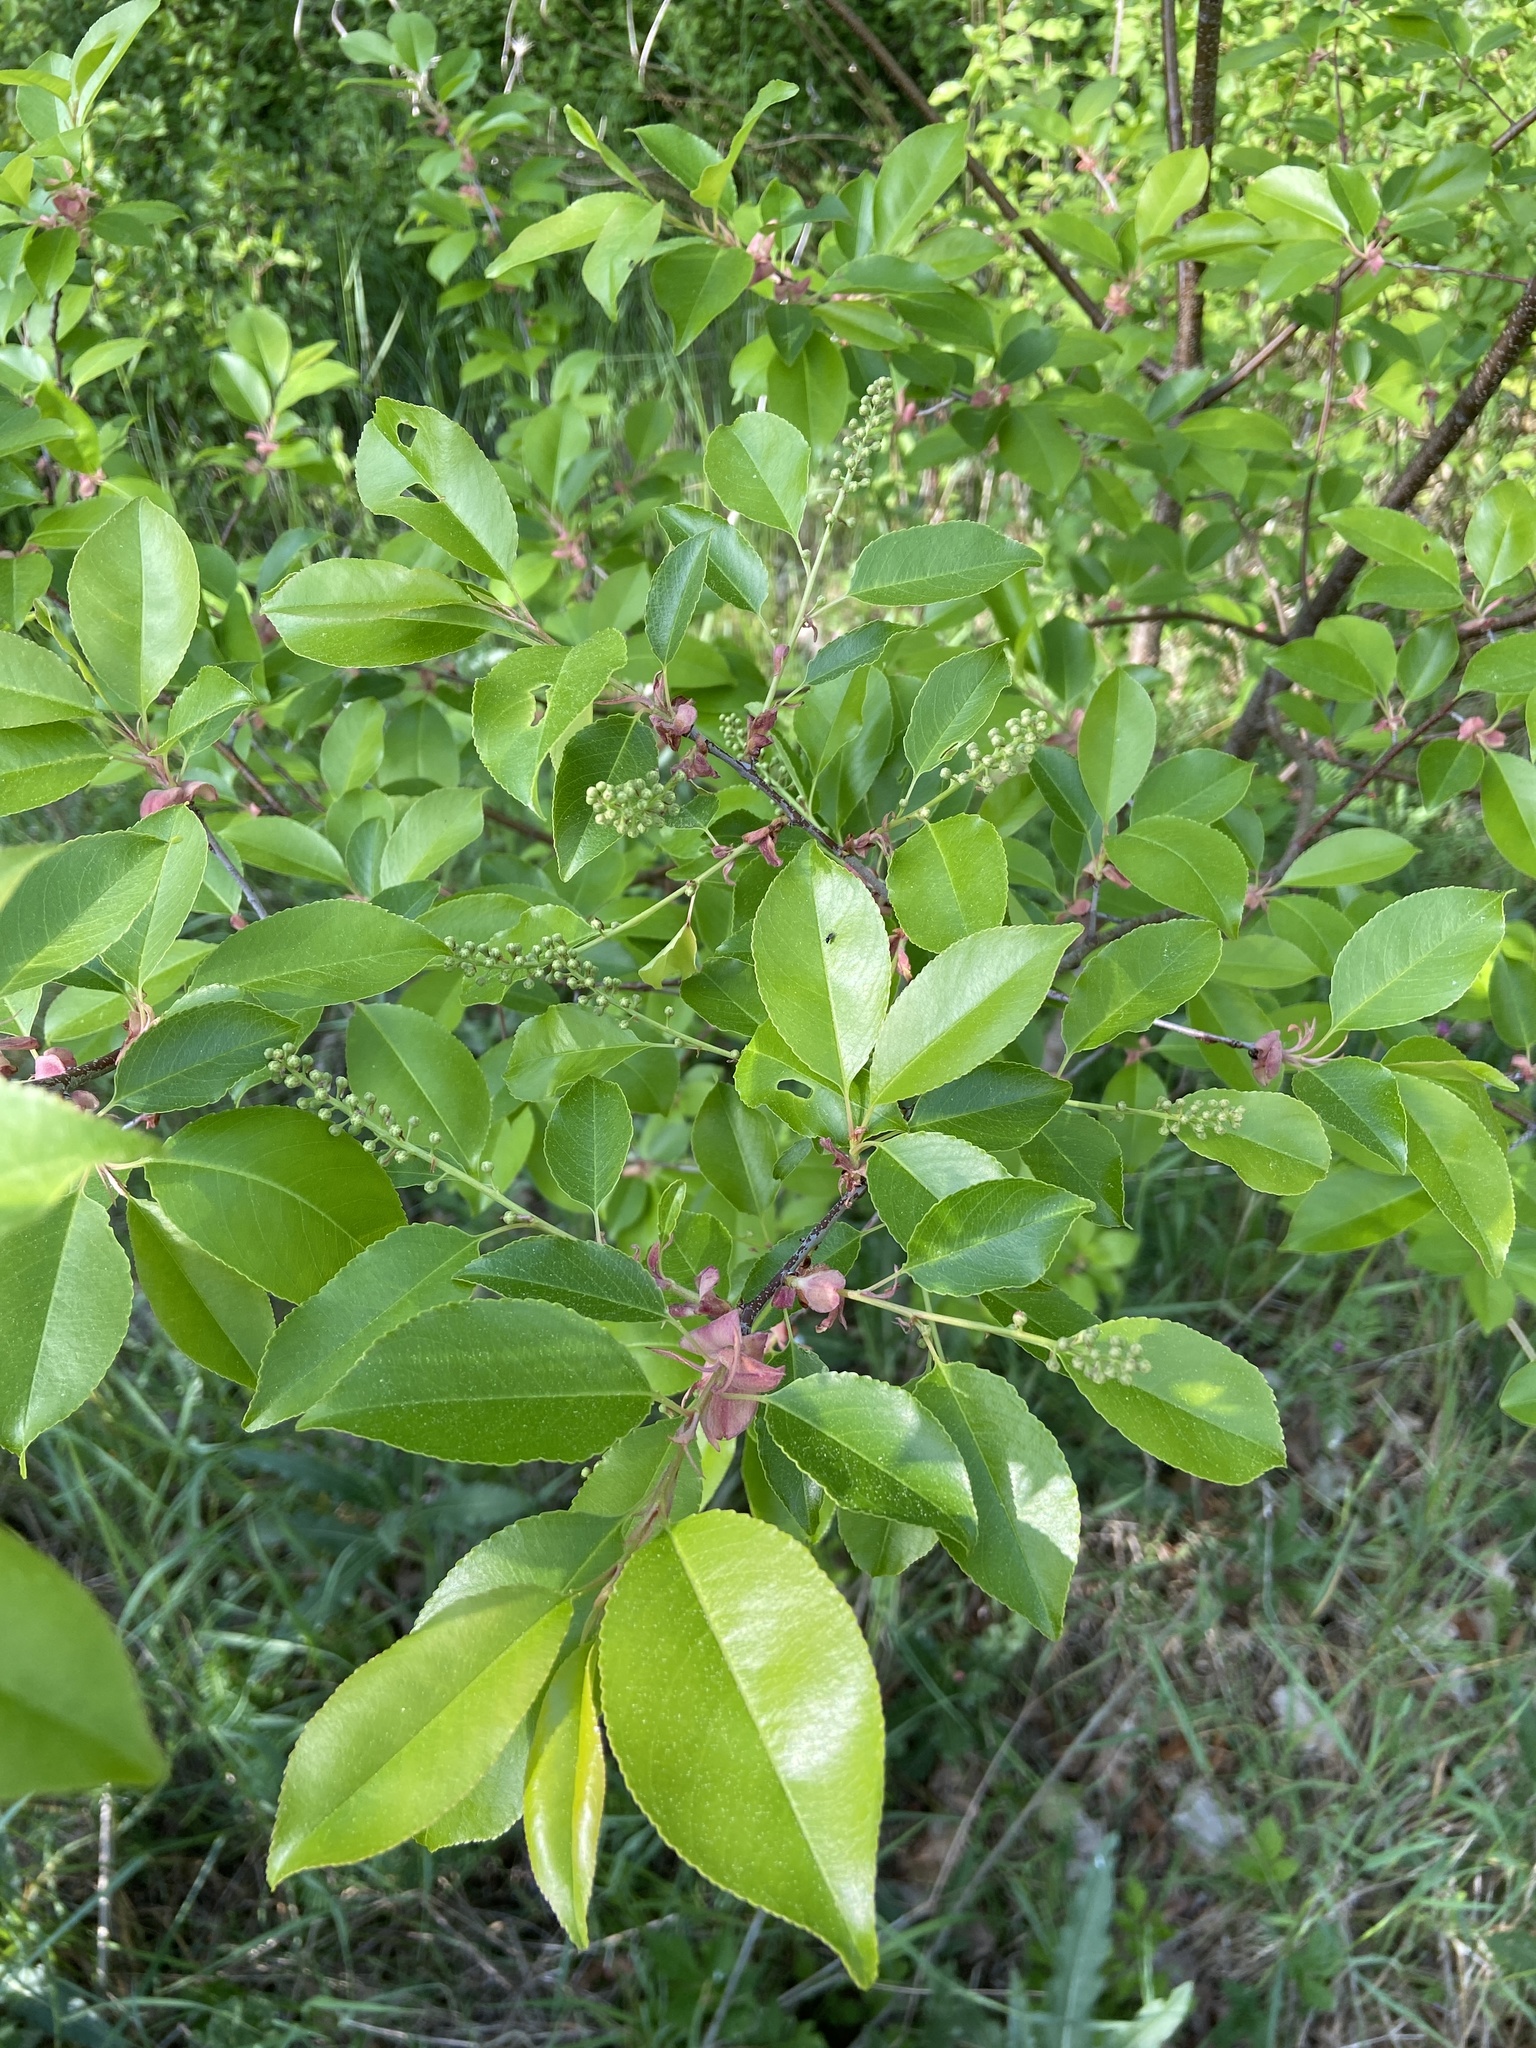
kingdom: Plantae
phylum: Tracheophyta
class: Magnoliopsida
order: Rosales
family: Rosaceae
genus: Prunus
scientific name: Prunus serotina
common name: Black cherry
